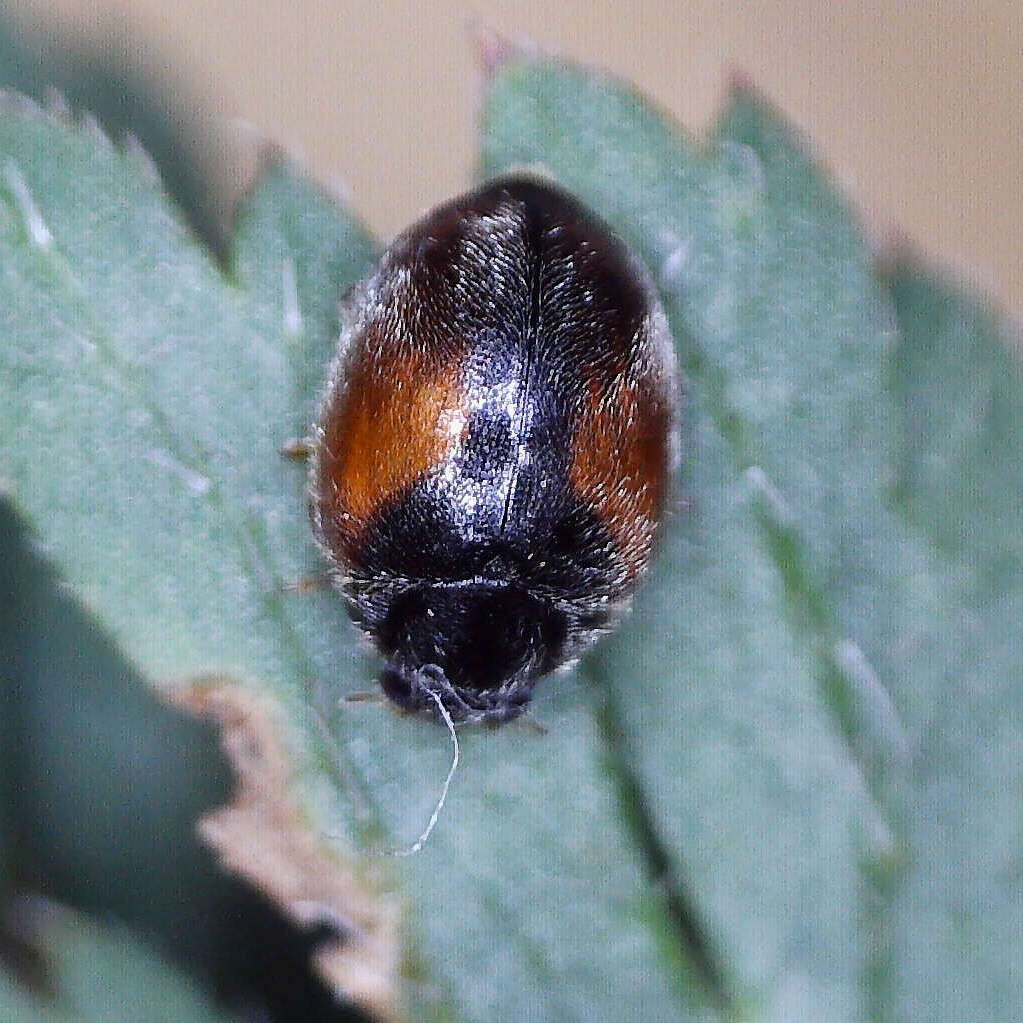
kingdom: Animalia
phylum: Arthropoda
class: Insecta
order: Coleoptera
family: Coccinellidae
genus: Scymnus
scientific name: Scymnus interruptus
